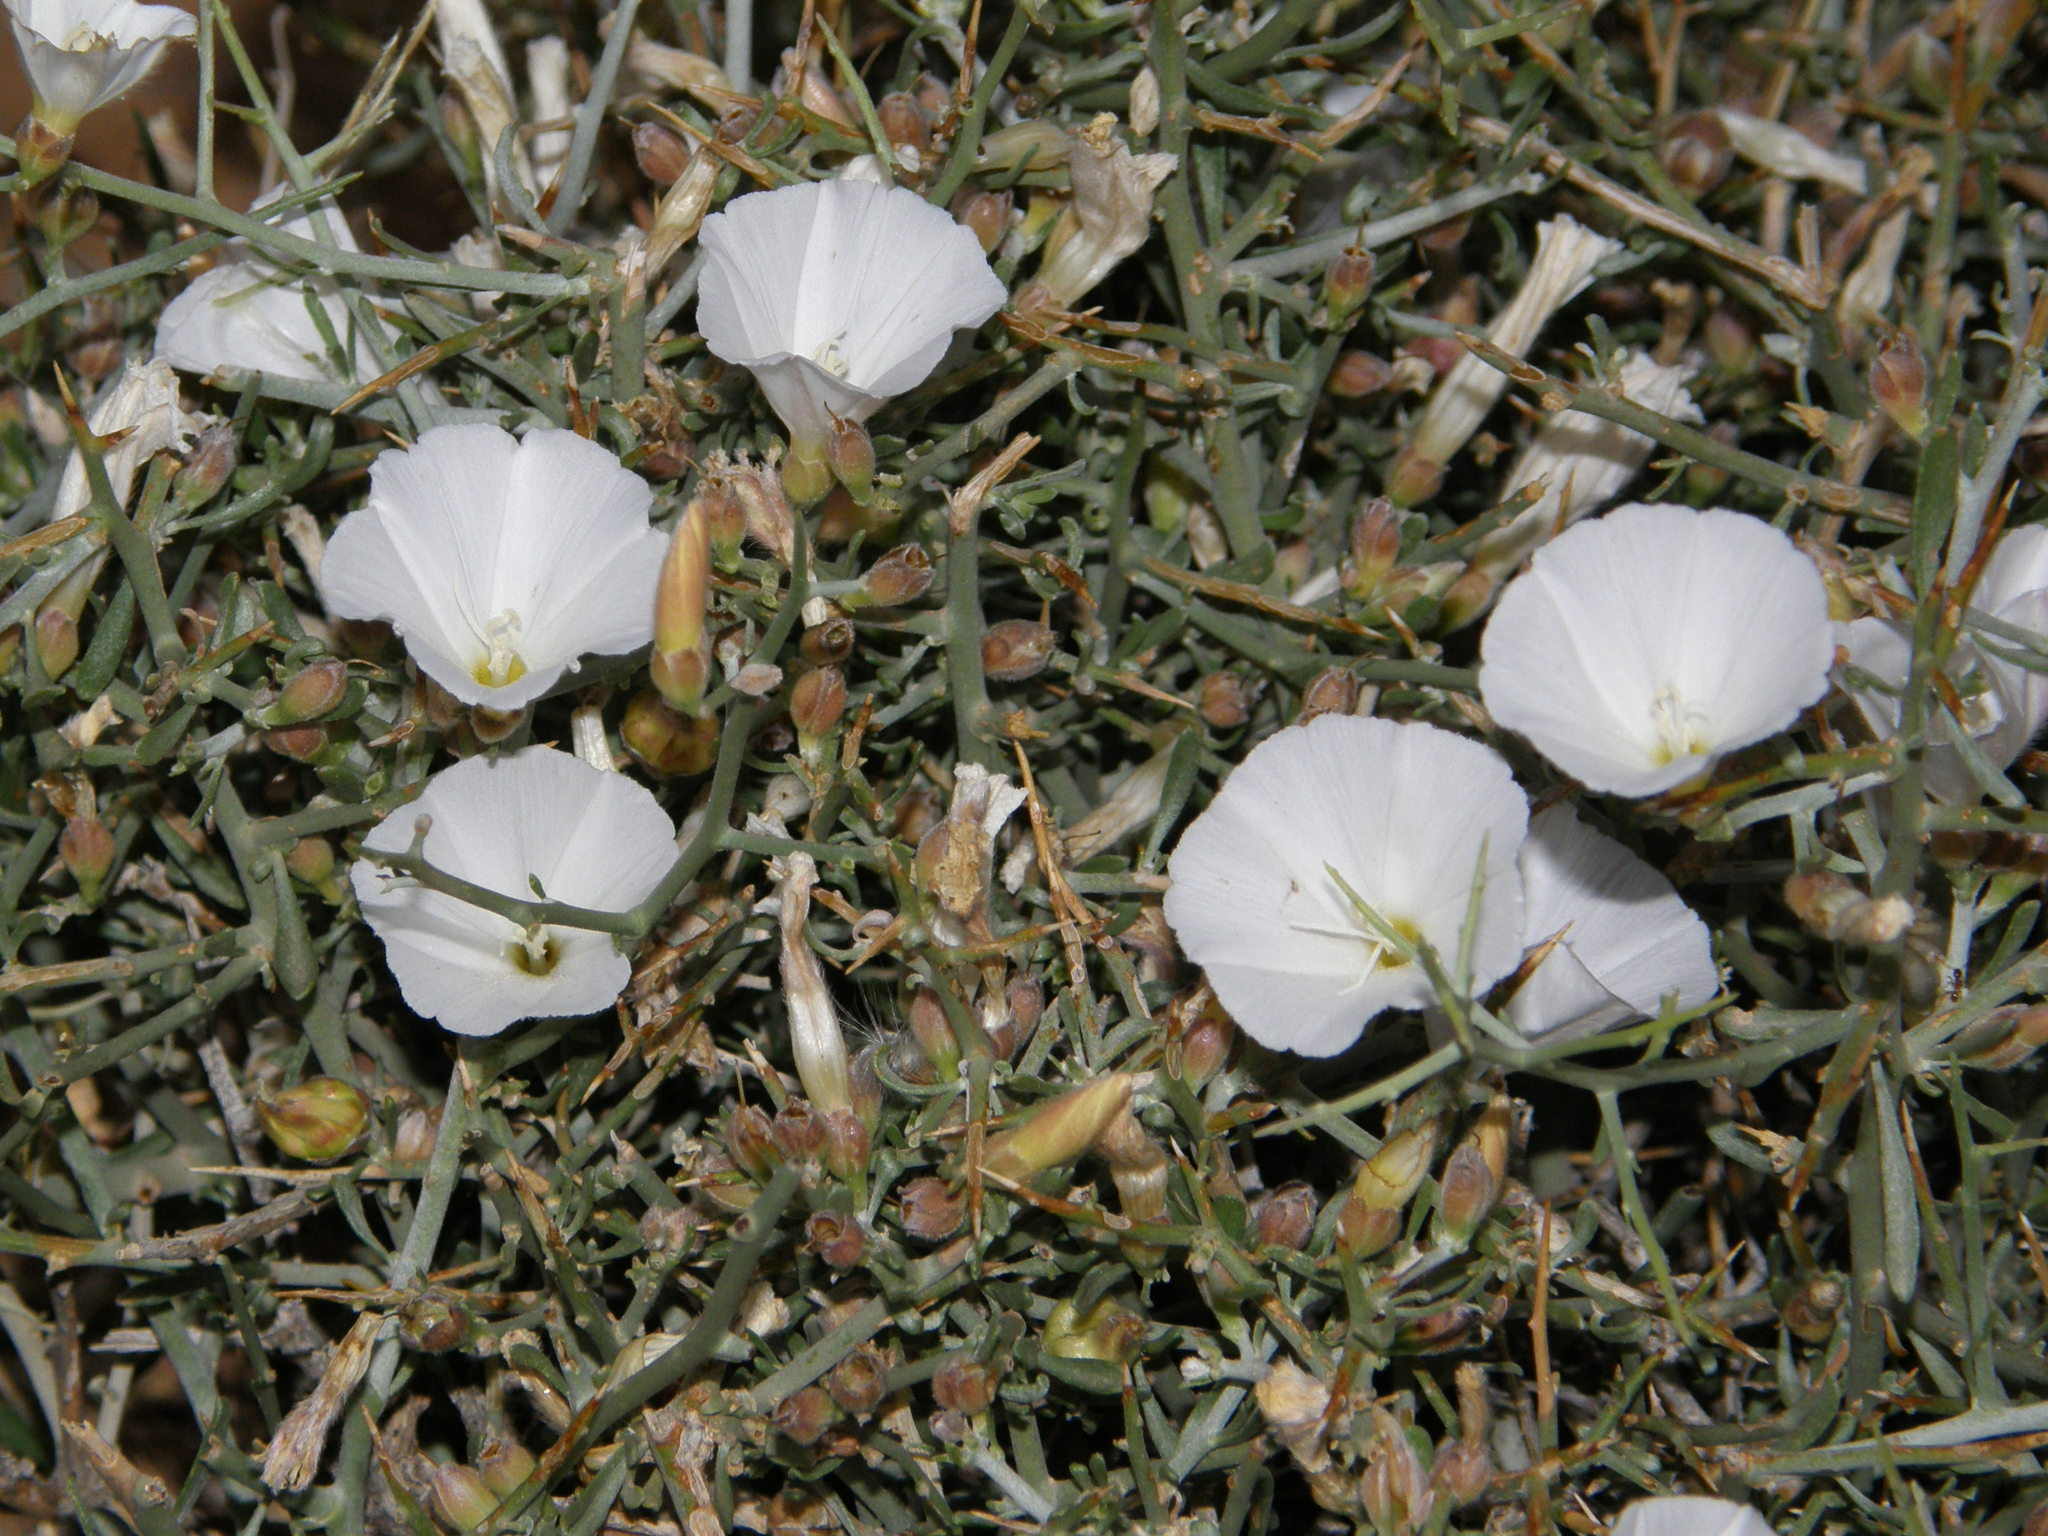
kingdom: Plantae
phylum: Tracheophyta
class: Magnoliopsida
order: Solanales
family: Convolvulaceae
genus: Convolvulus
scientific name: Convolvulus trabutianus
